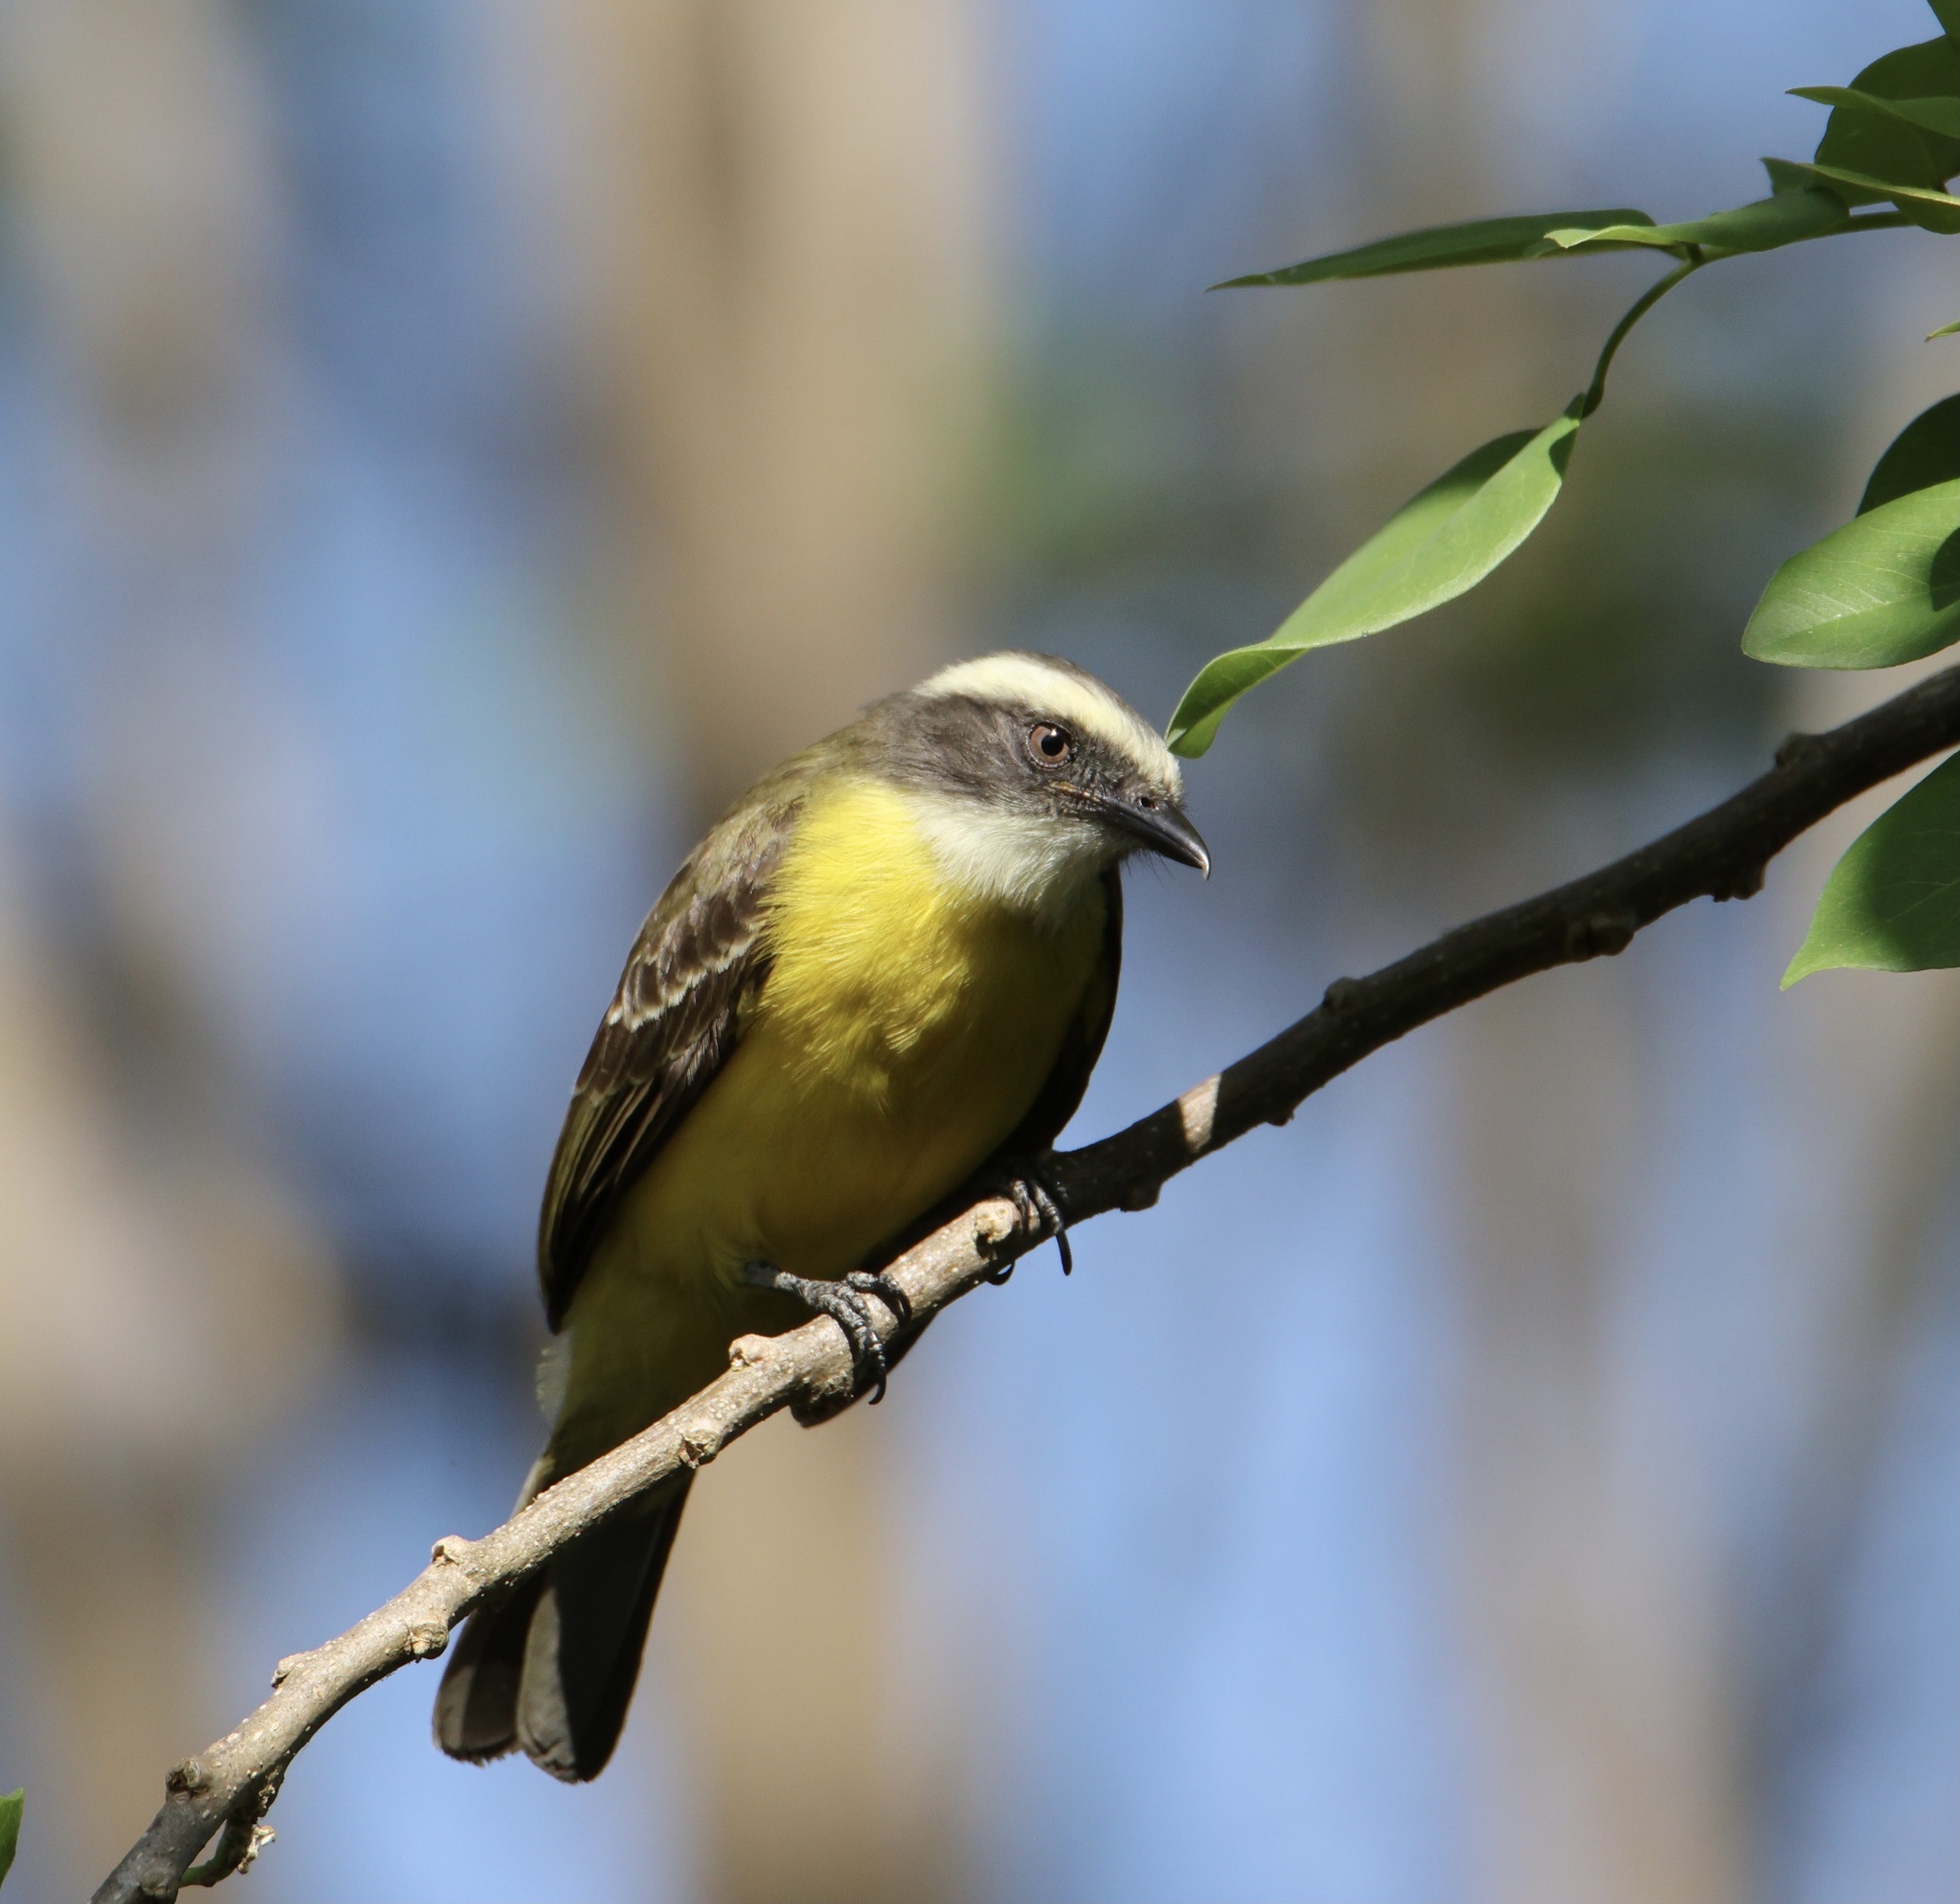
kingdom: Animalia
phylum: Chordata
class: Aves
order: Passeriformes
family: Tyrannidae
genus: Myiozetetes
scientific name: Myiozetetes similis
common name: Social flycatcher
